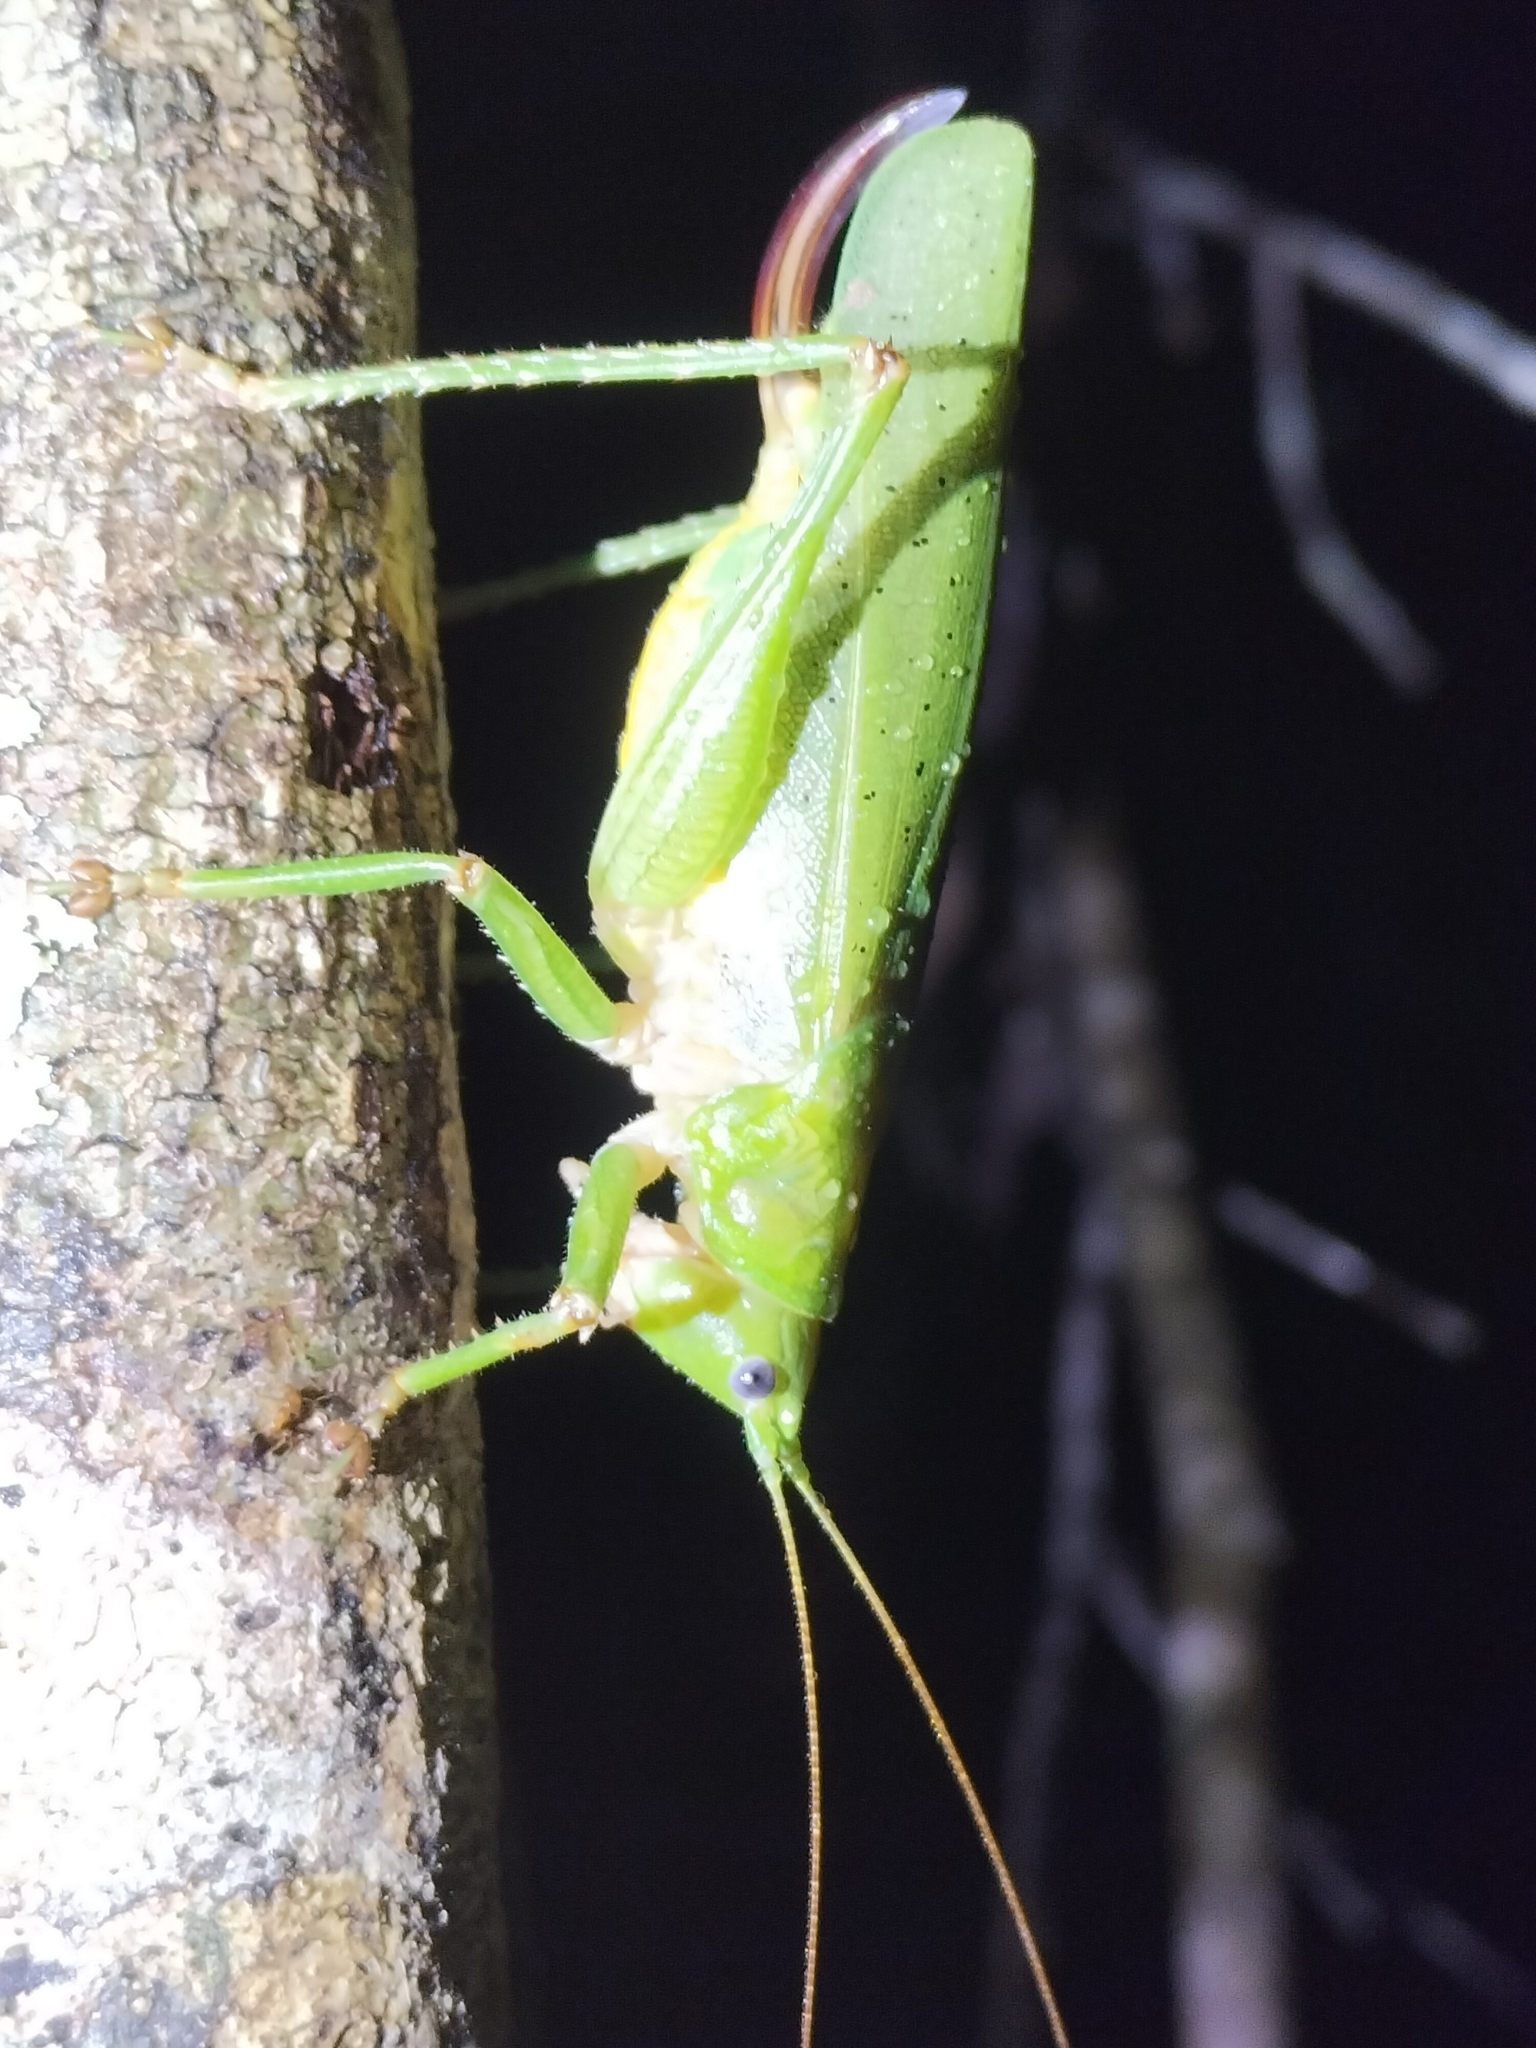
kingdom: Animalia
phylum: Arthropoda
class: Insecta
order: Orthoptera
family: Tettigoniidae
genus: Austrosalomona
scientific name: Austrosalomona destructor
